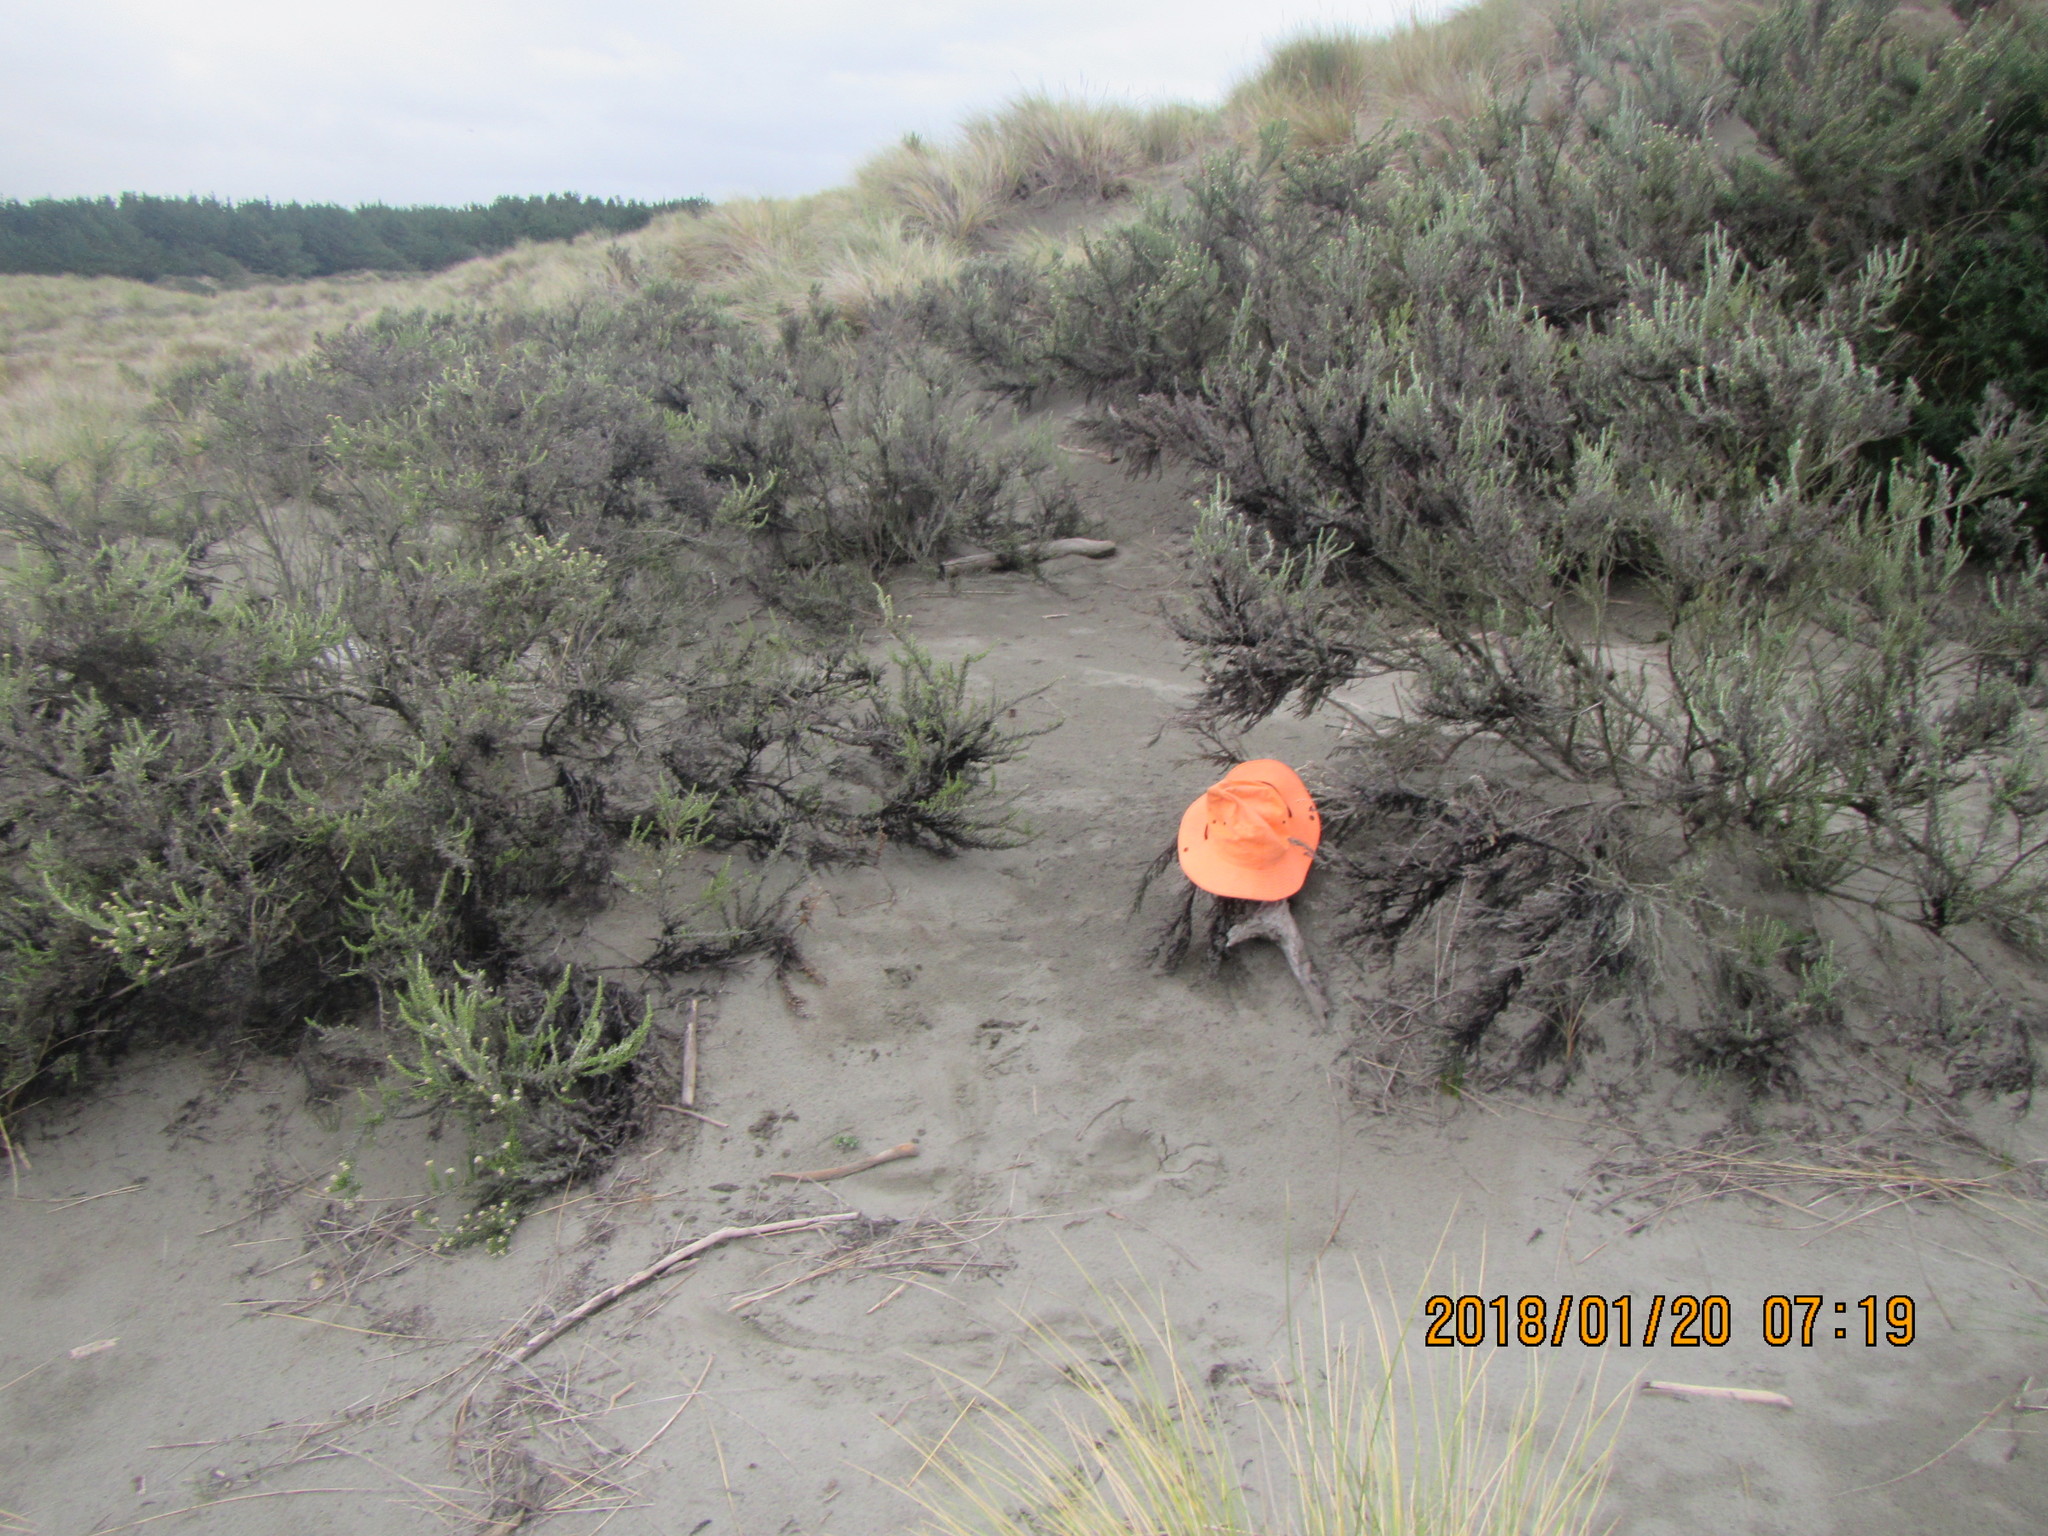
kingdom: Animalia
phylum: Arthropoda
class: Arachnida
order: Araneae
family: Theridiidae
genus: Steatoda
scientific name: Steatoda lepida
